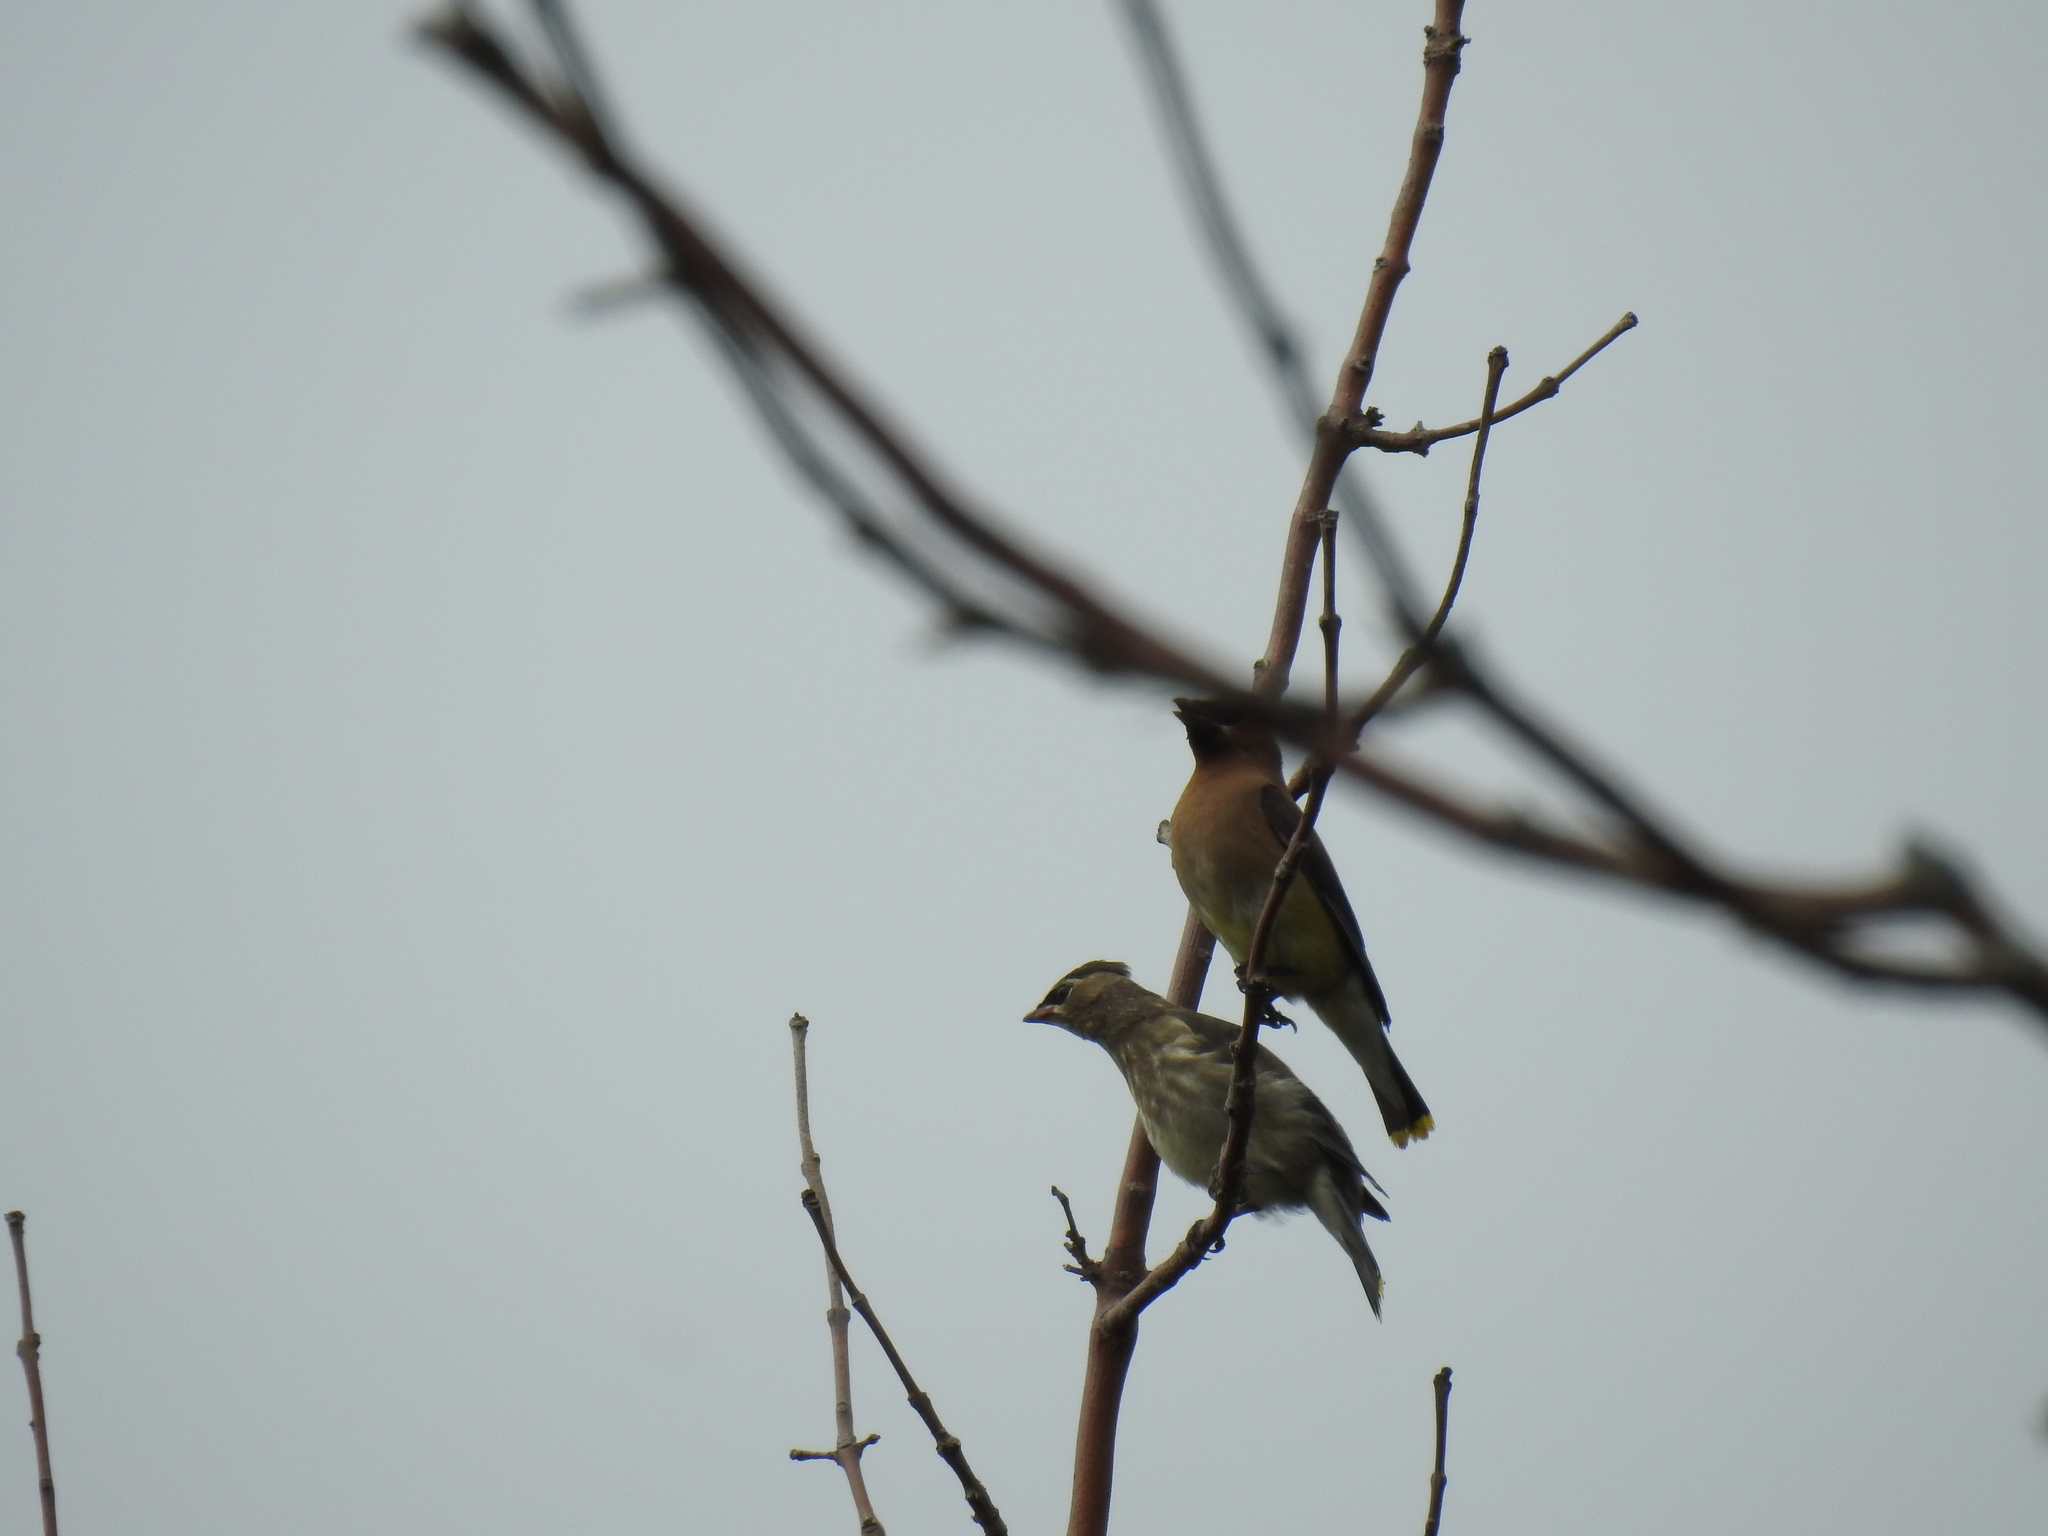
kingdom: Animalia
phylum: Chordata
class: Aves
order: Passeriformes
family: Bombycillidae
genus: Bombycilla
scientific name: Bombycilla cedrorum
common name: Cedar waxwing
